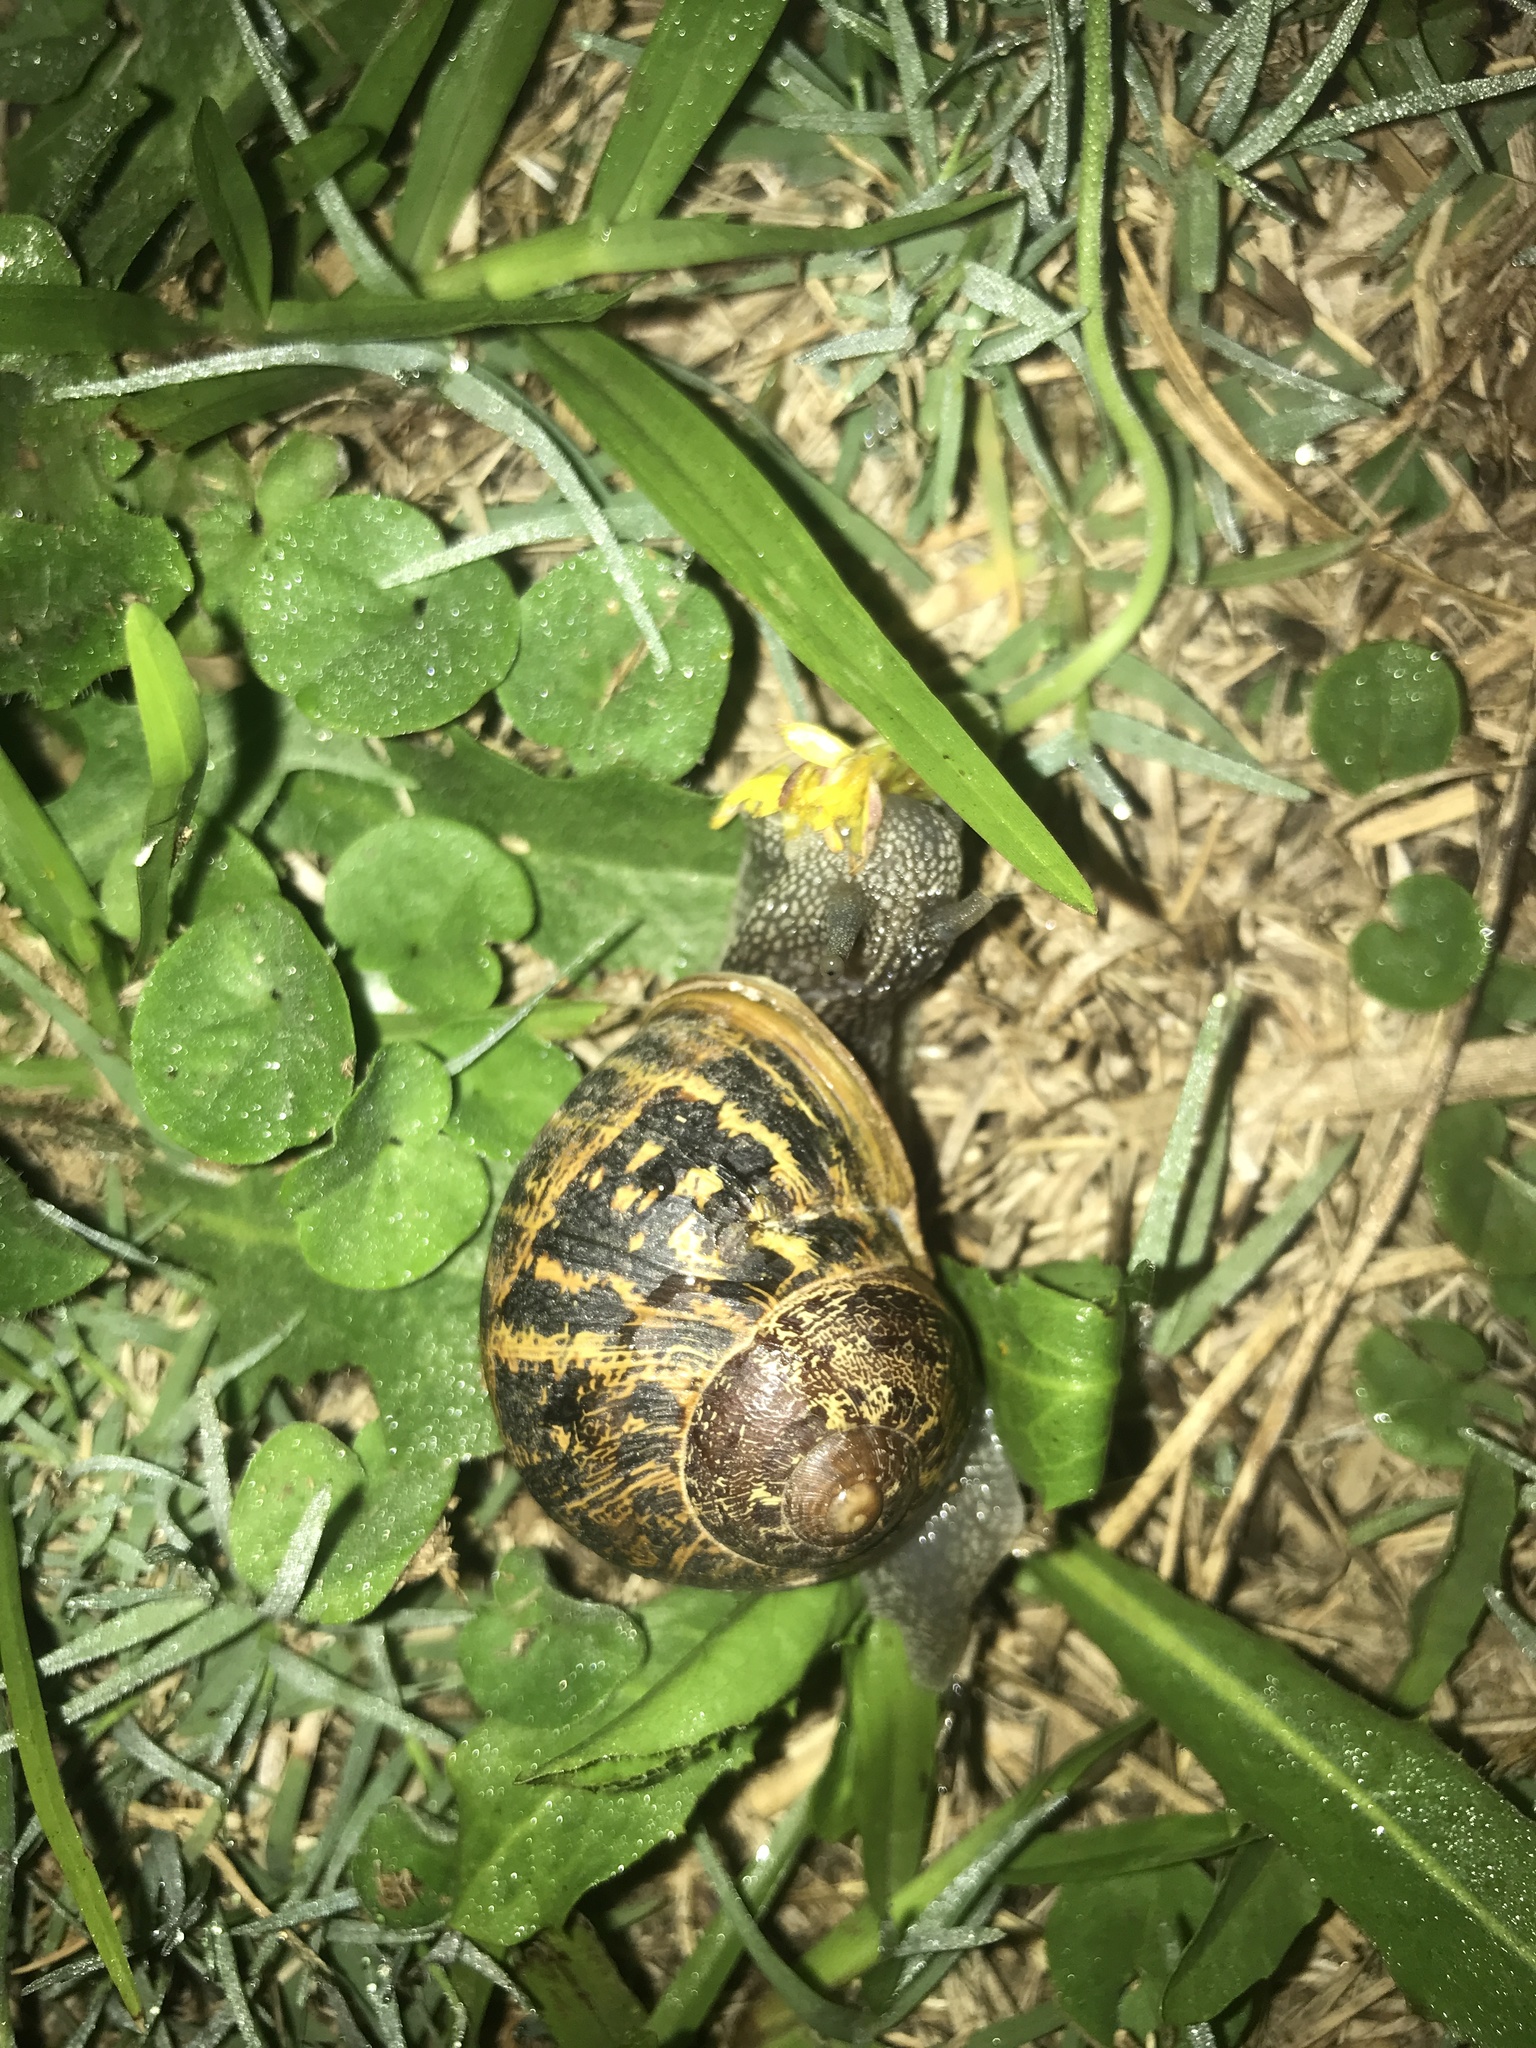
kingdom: Animalia
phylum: Mollusca
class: Gastropoda
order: Stylommatophora
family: Helicidae
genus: Cornu
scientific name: Cornu aspersum
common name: Brown garden snail
